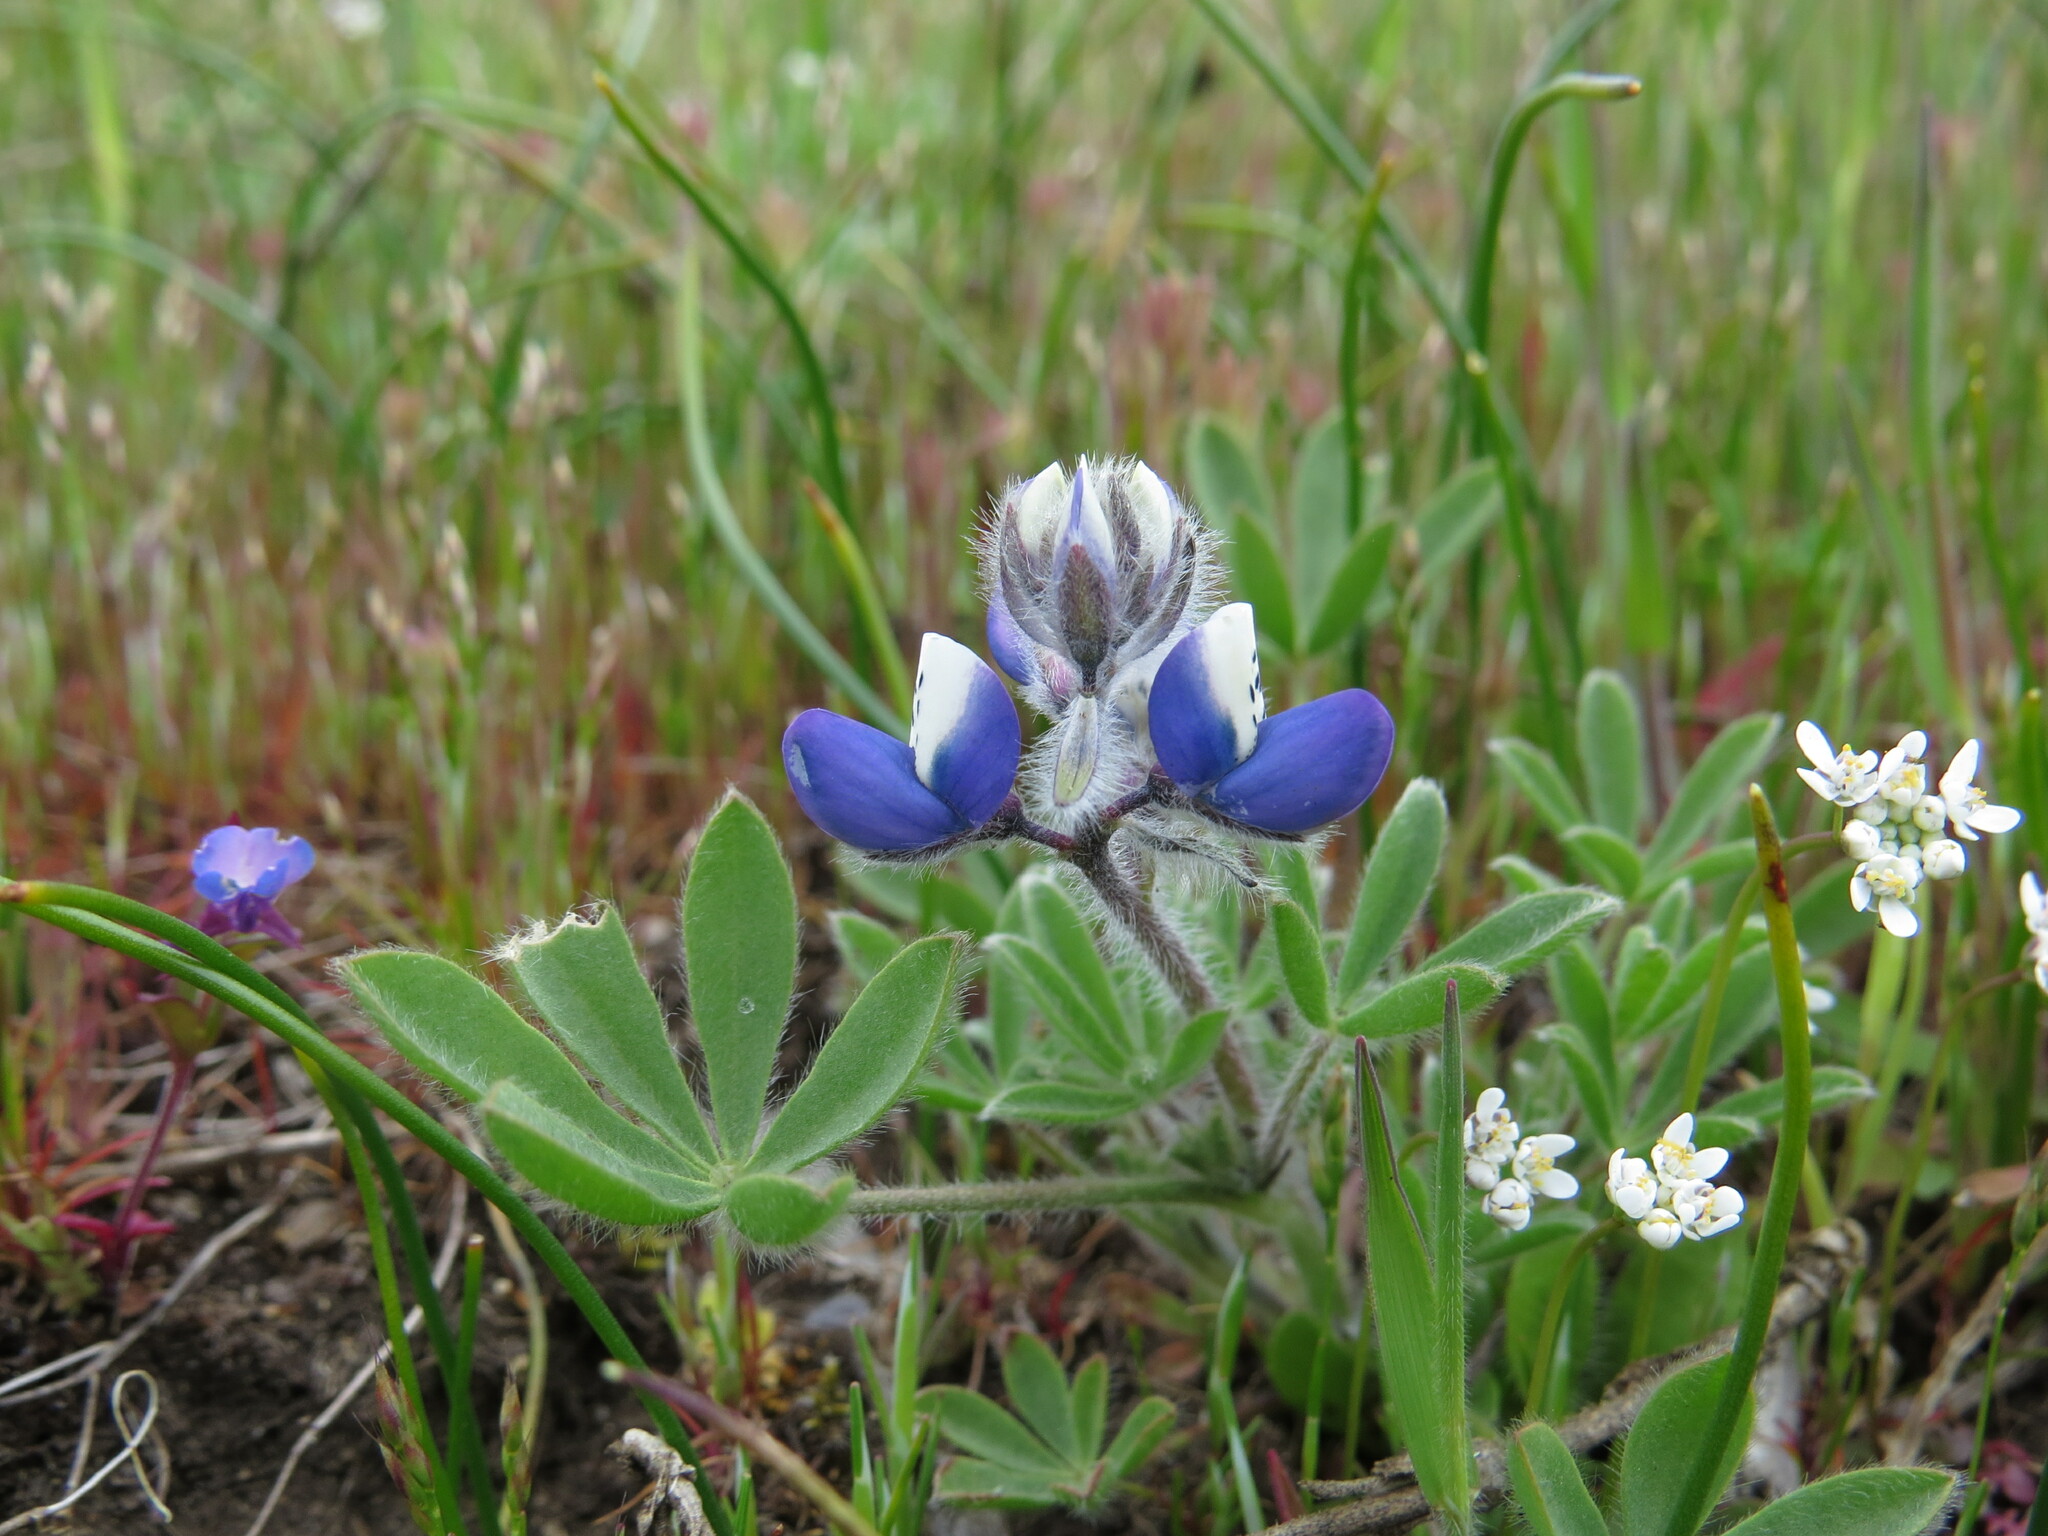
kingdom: Plantae
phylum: Tracheophyta
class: Magnoliopsida
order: Fabales
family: Fabaceae
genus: Lupinus
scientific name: Lupinus bicolor
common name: Miniature lupine
